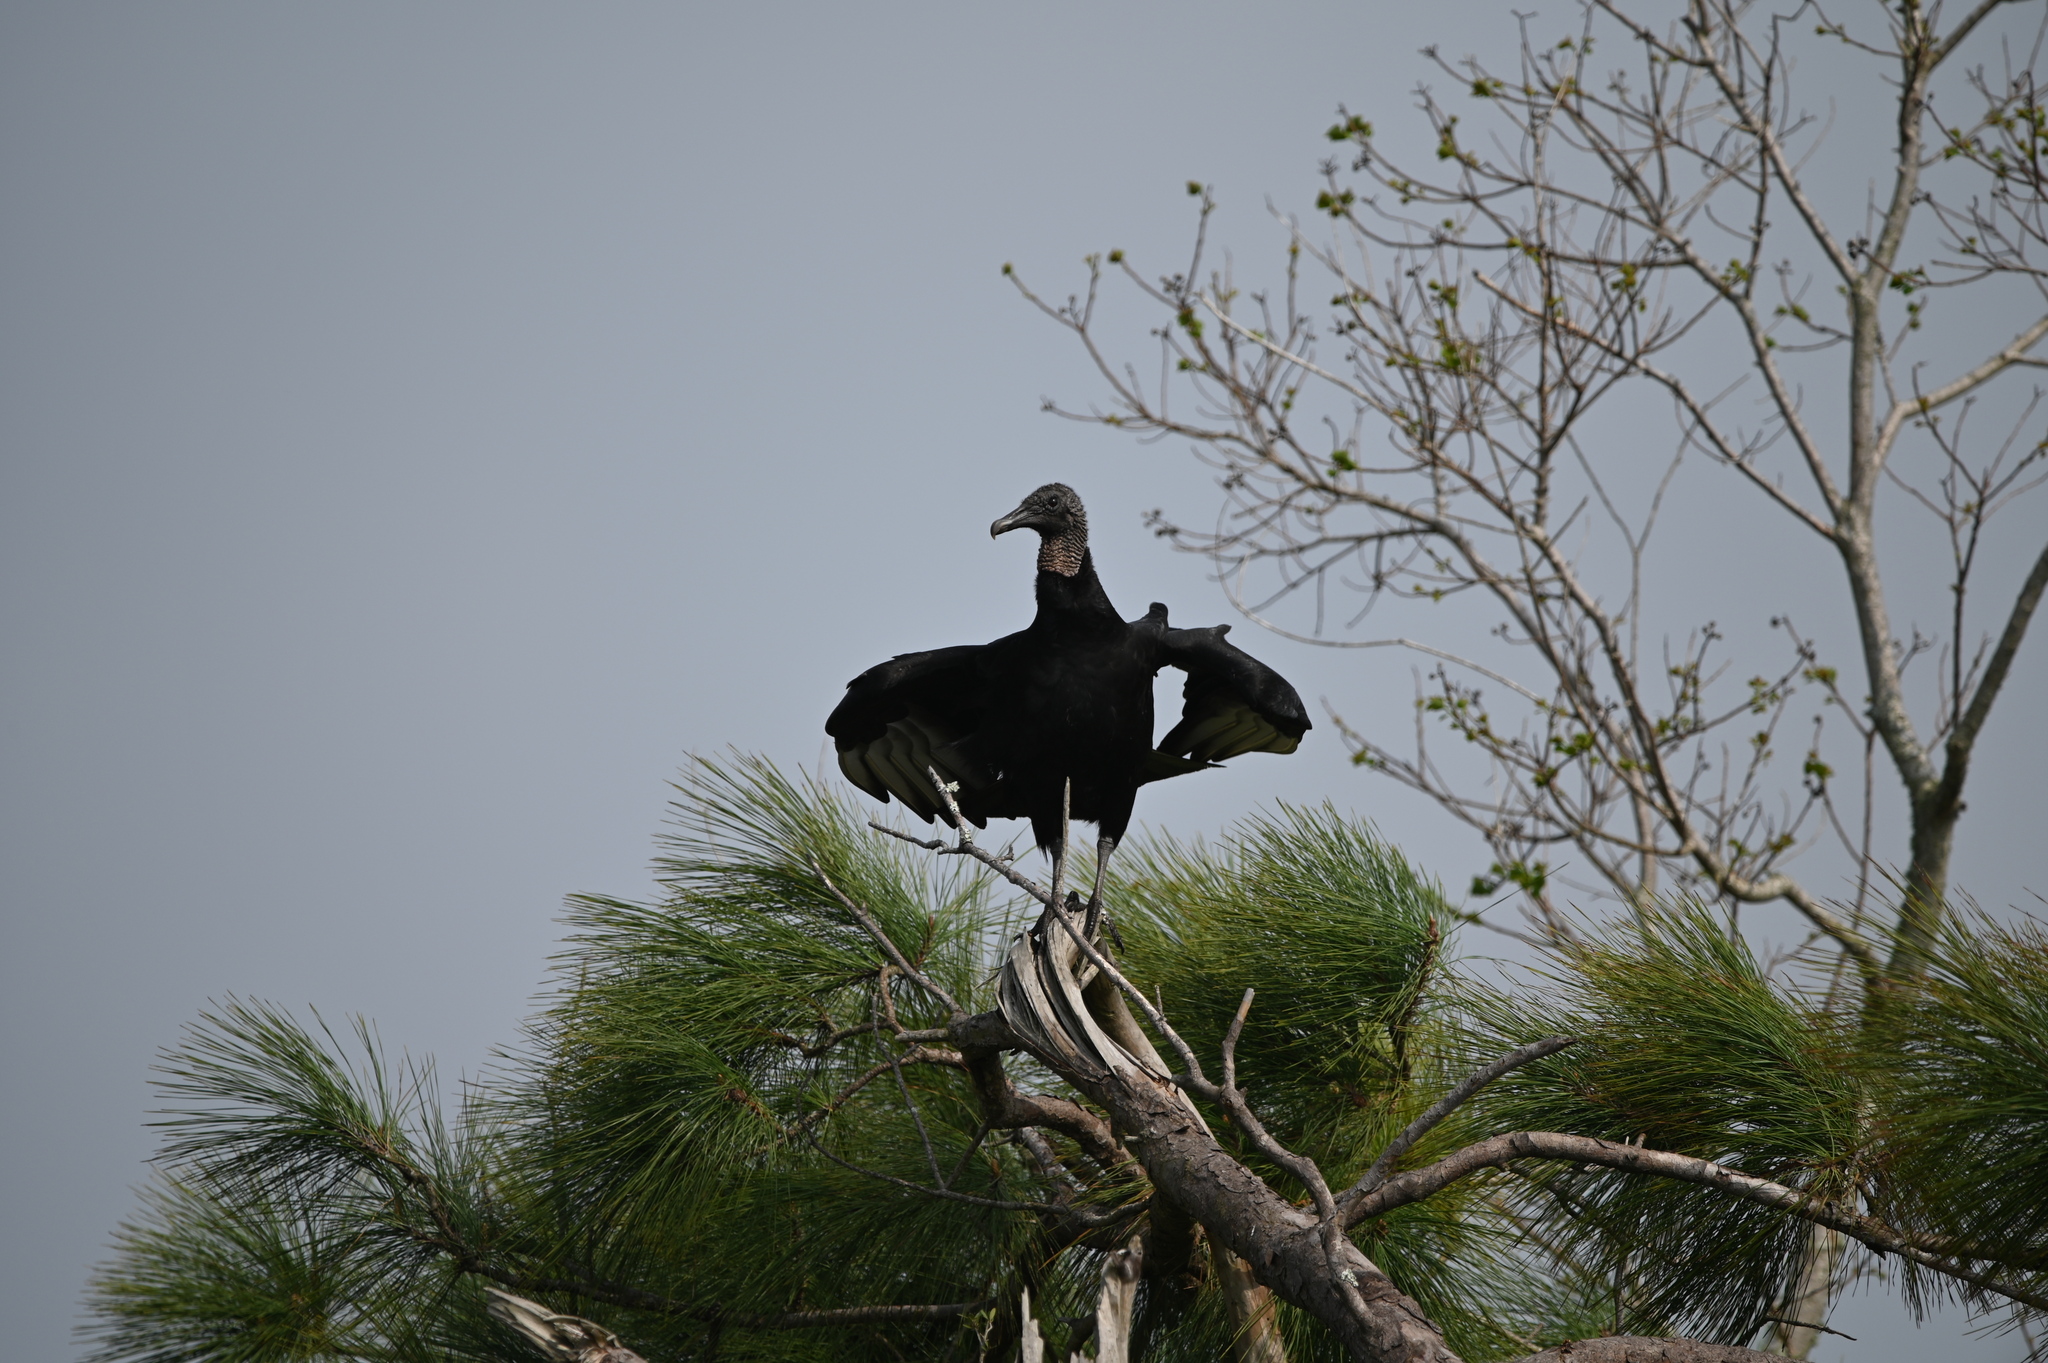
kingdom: Animalia
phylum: Chordata
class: Aves
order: Accipitriformes
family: Cathartidae
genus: Coragyps
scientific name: Coragyps atratus
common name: Black vulture
